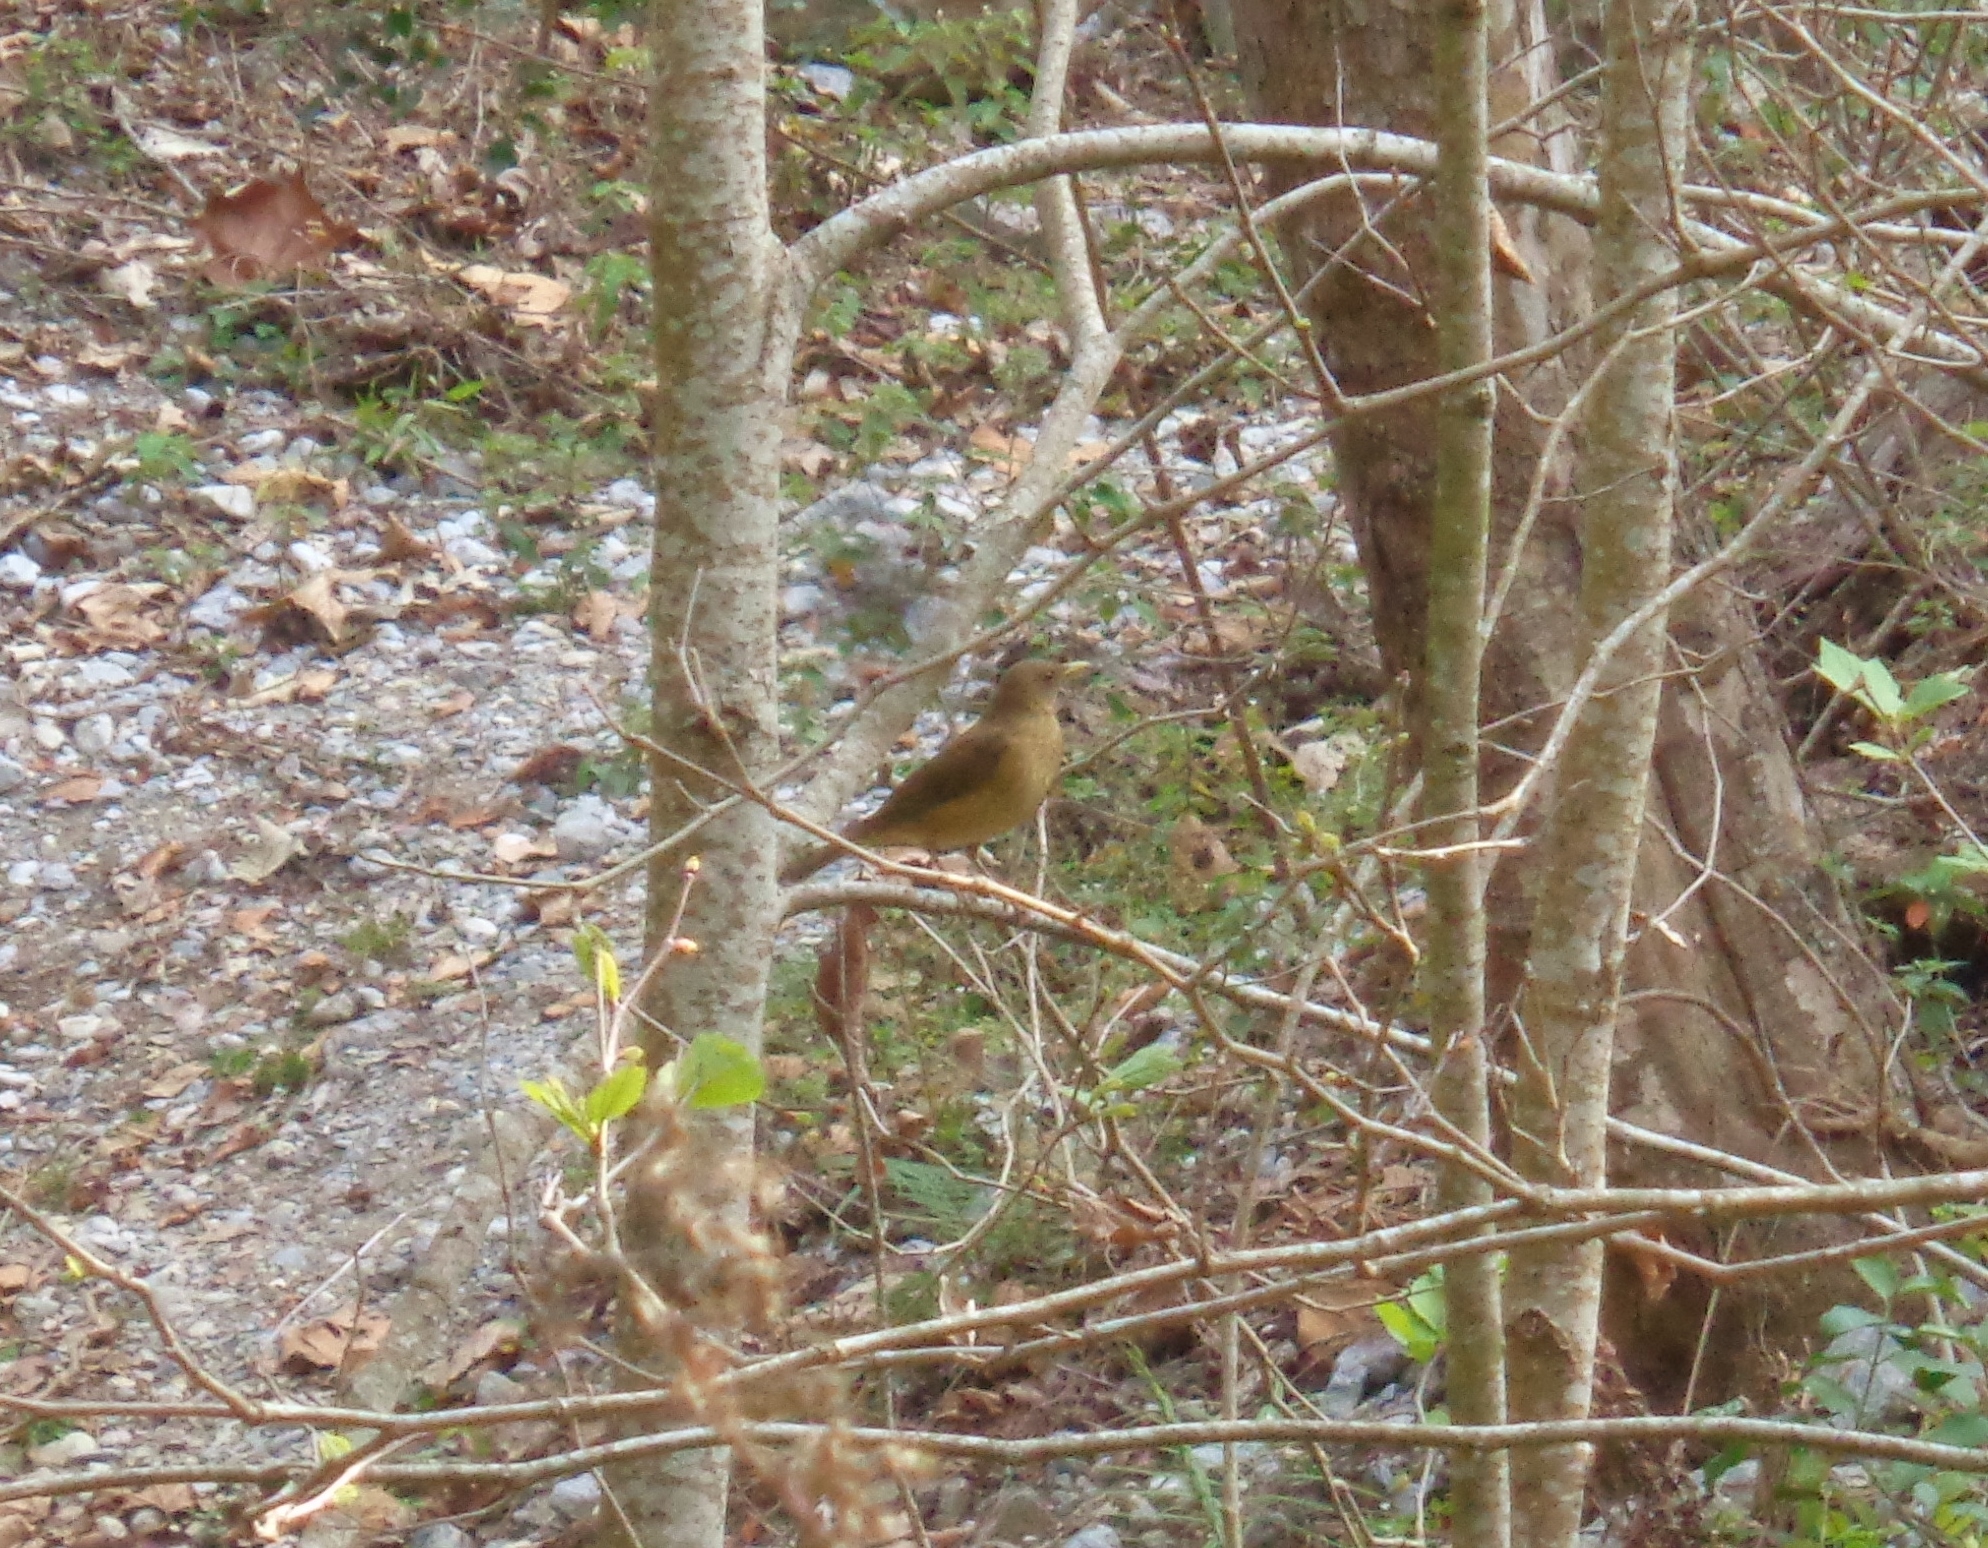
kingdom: Animalia
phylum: Chordata
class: Aves
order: Passeriformes
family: Turdidae
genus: Turdus
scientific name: Turdus grayi
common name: Clay-colored thrush
